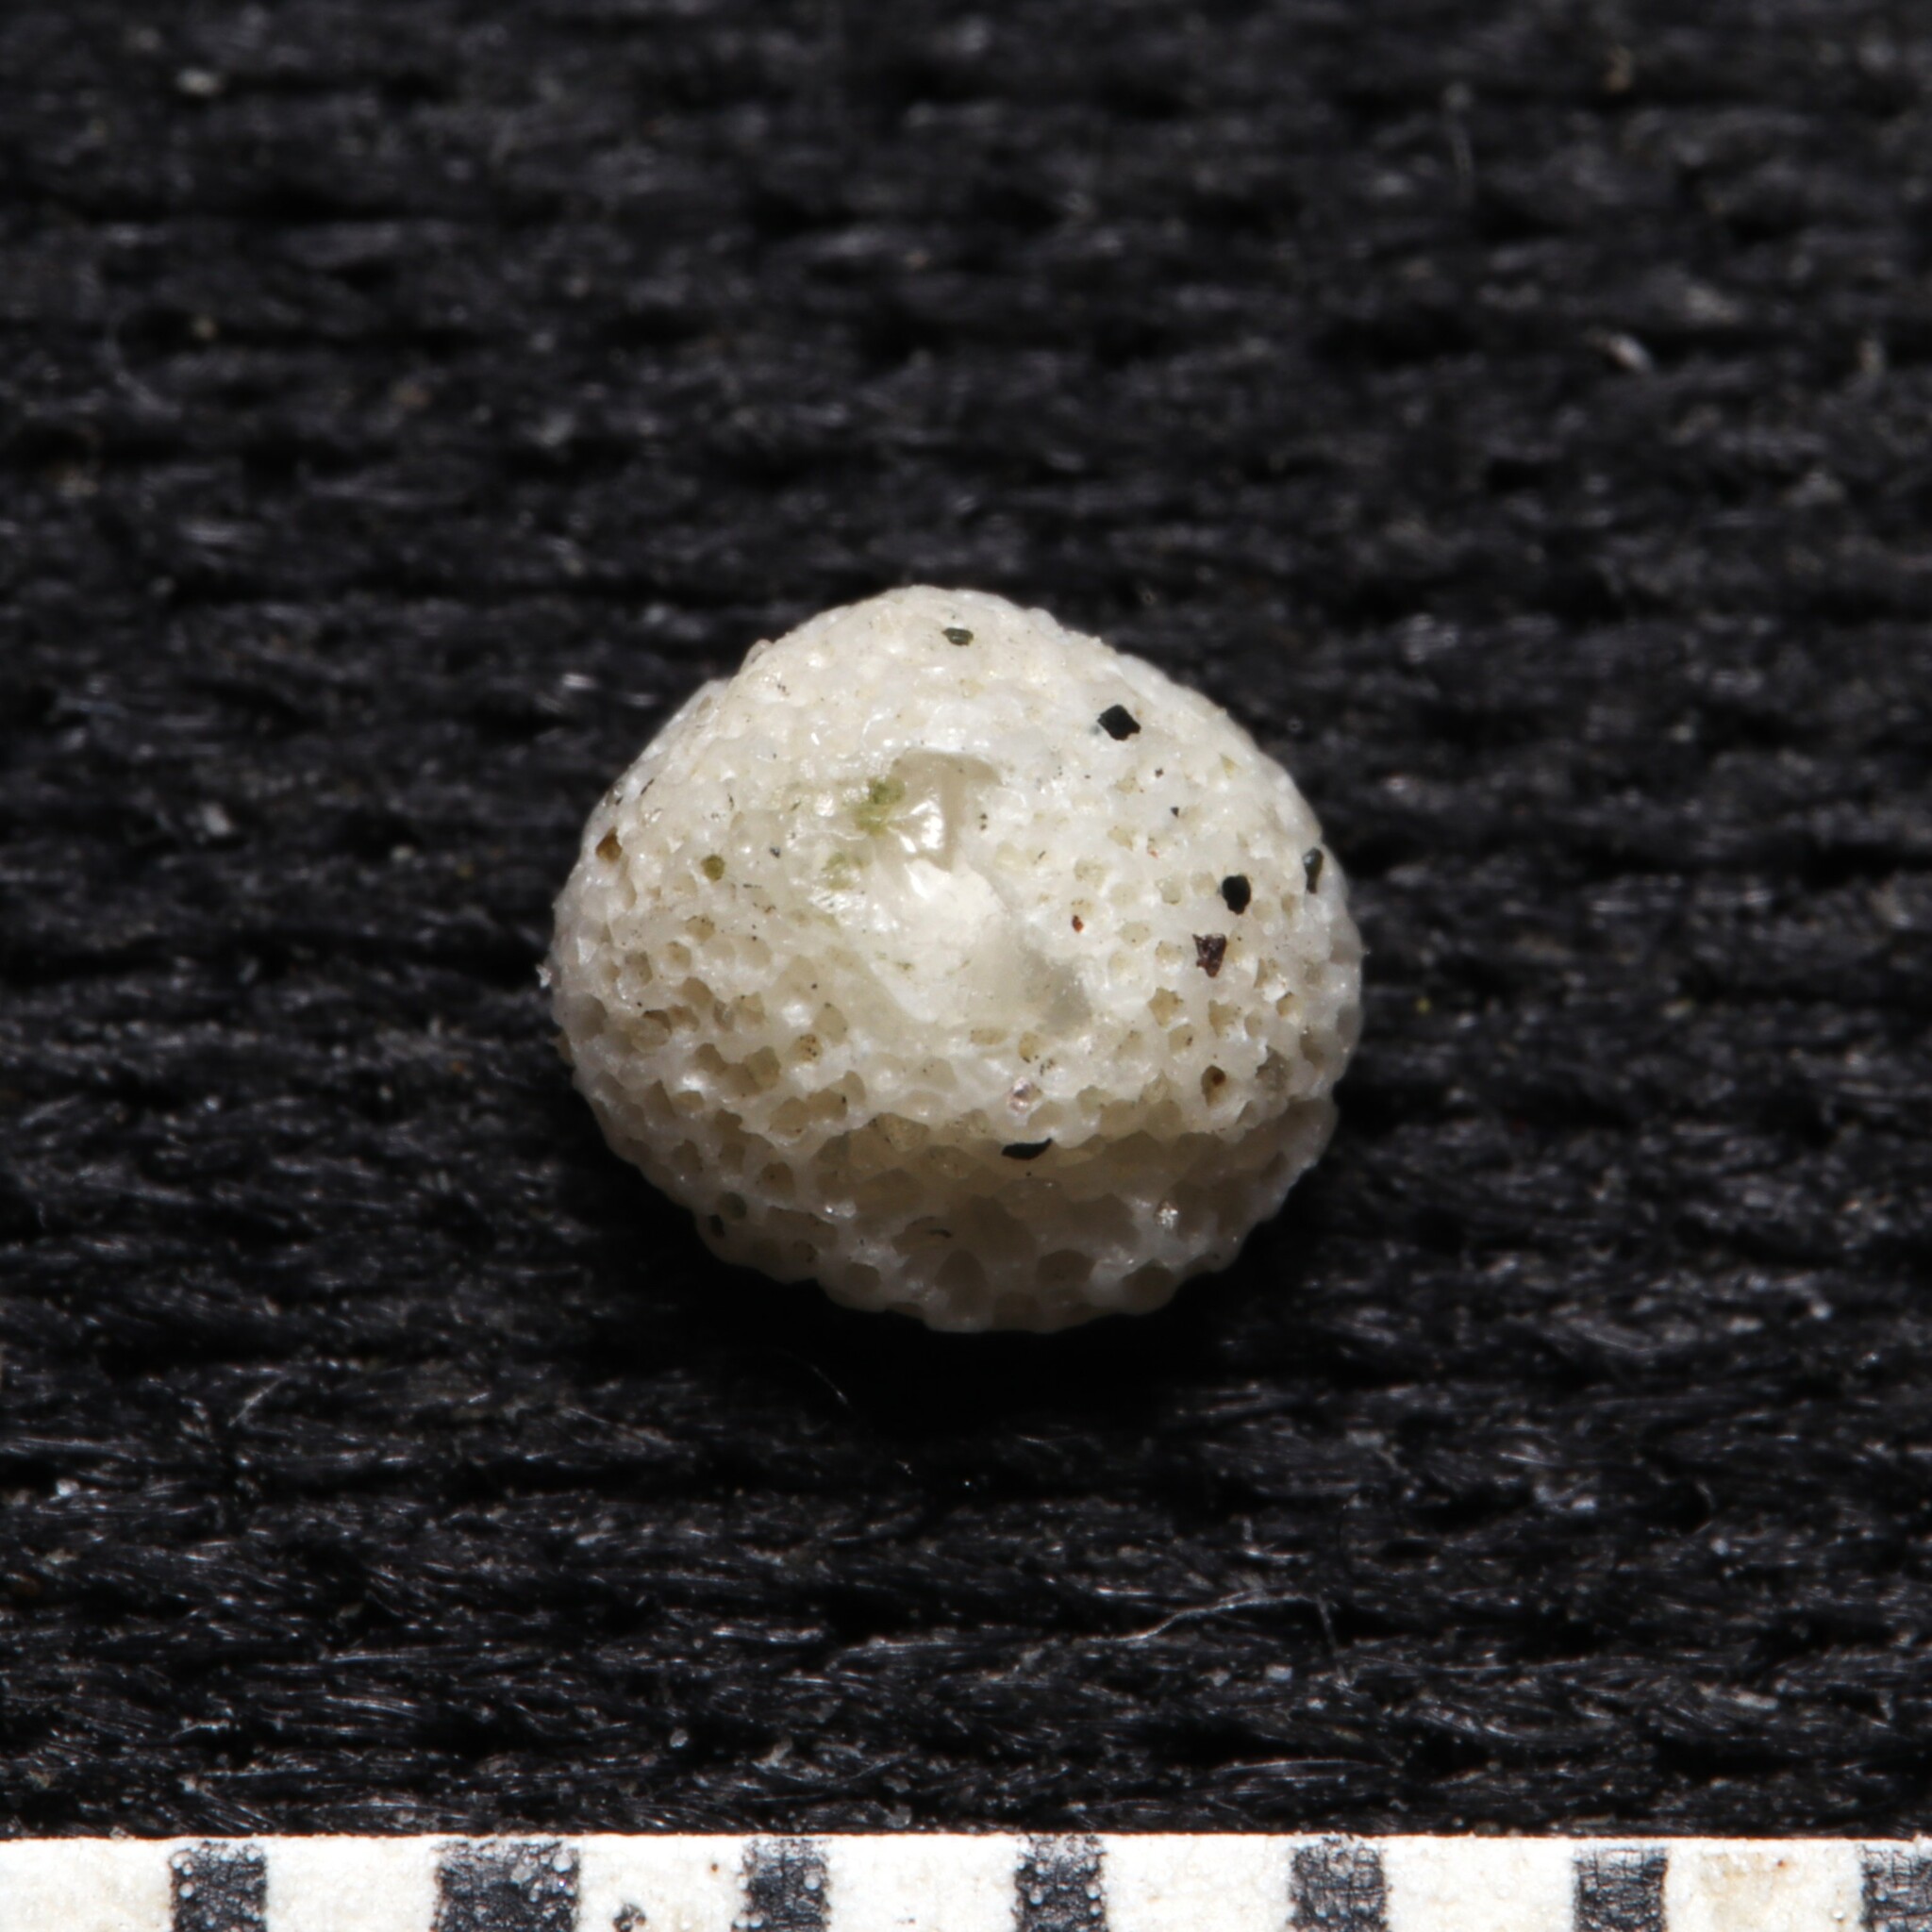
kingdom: Animalia
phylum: Bryozoa
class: Gymnolaemata
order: Cheilostomatida
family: Cupuladriidae
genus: Discoporella
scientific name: Discoporella umbellata
